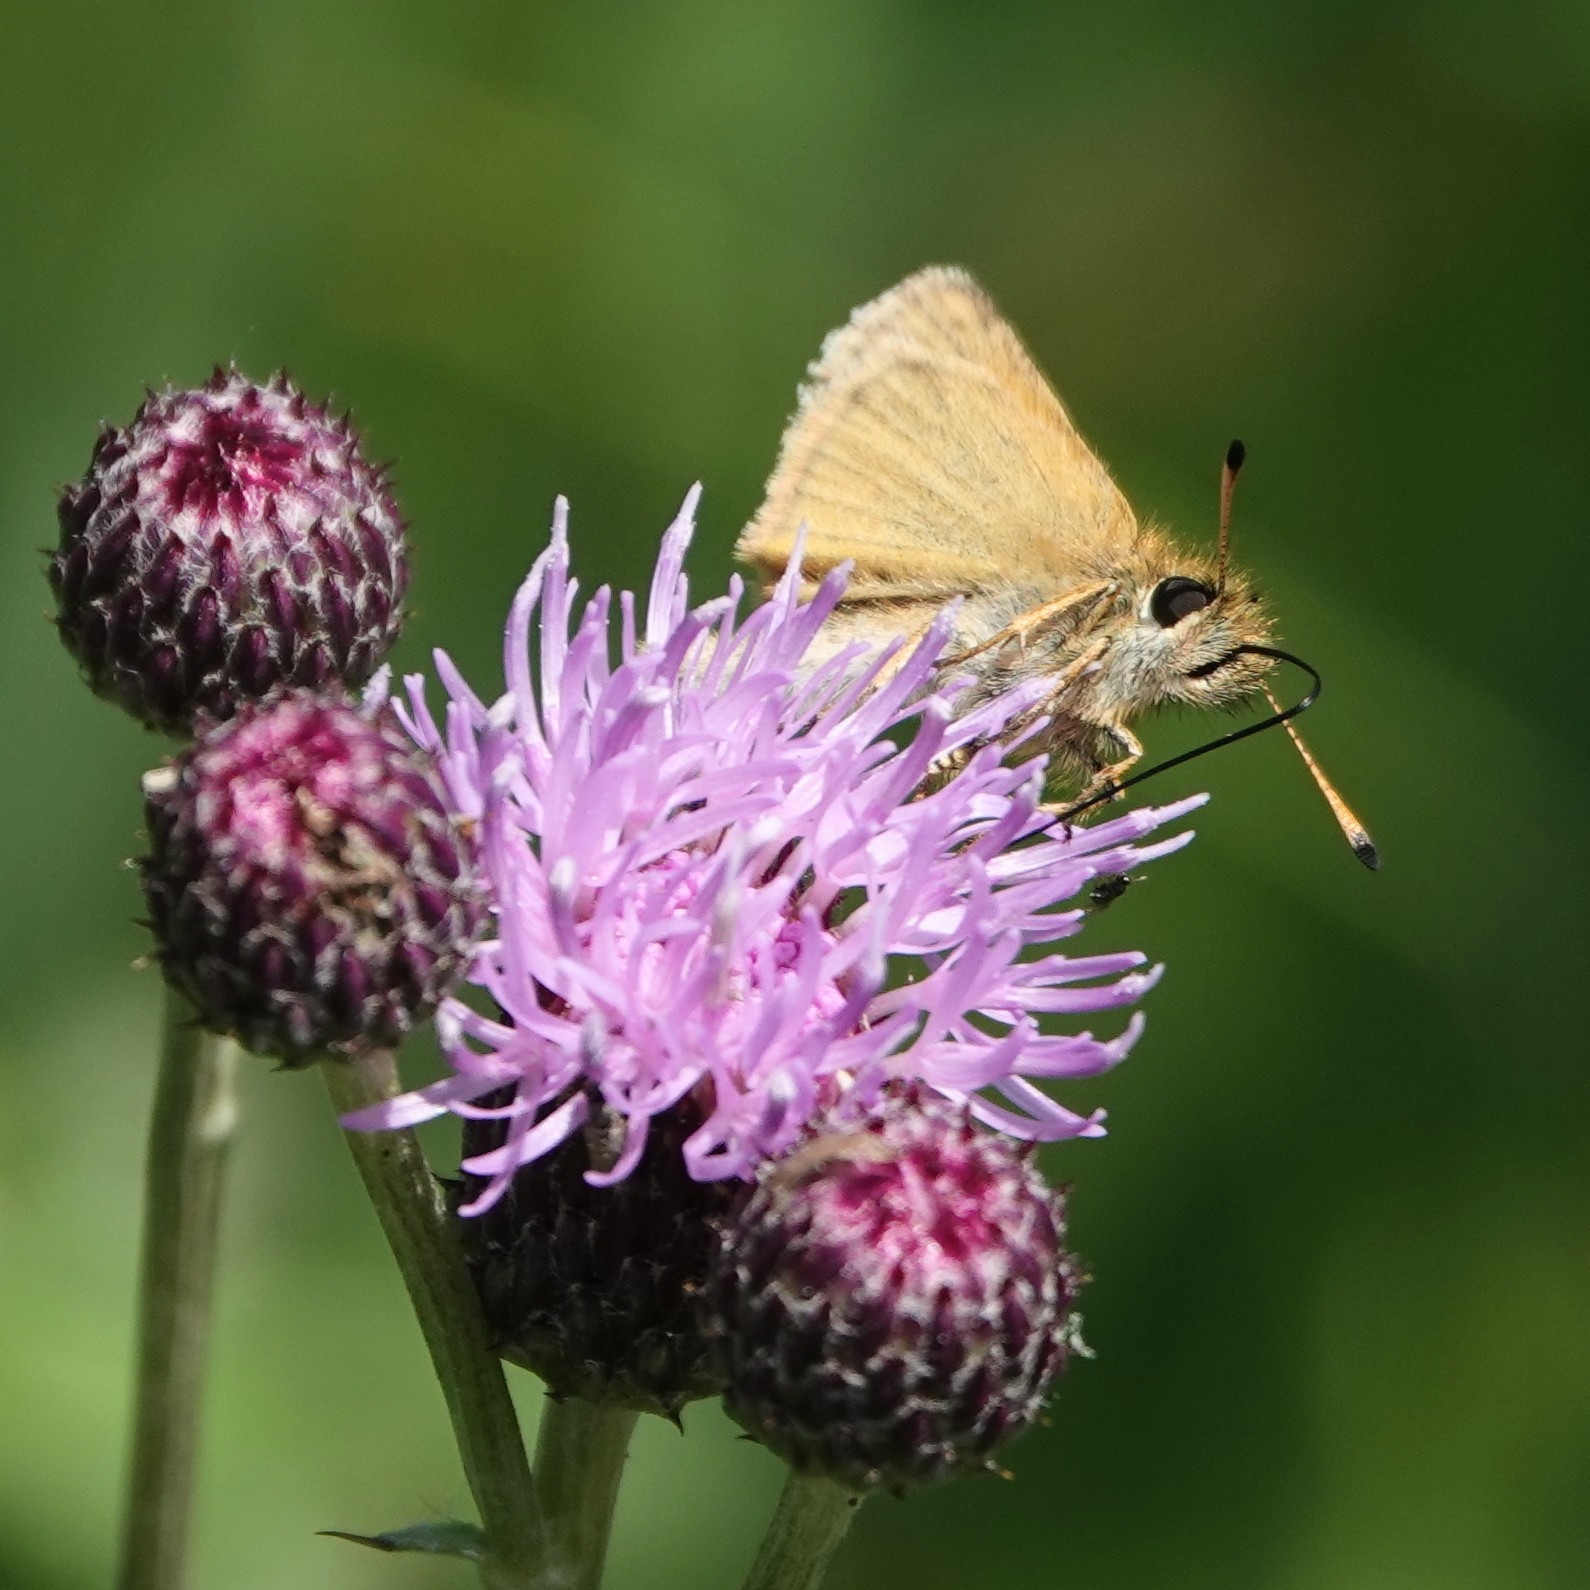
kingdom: Animalia
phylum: Arthropoda
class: Insecta
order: Lepidoptera
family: Hesperiidae
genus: Thymelicus
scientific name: Thymelicus lineola
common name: Essex skipper
